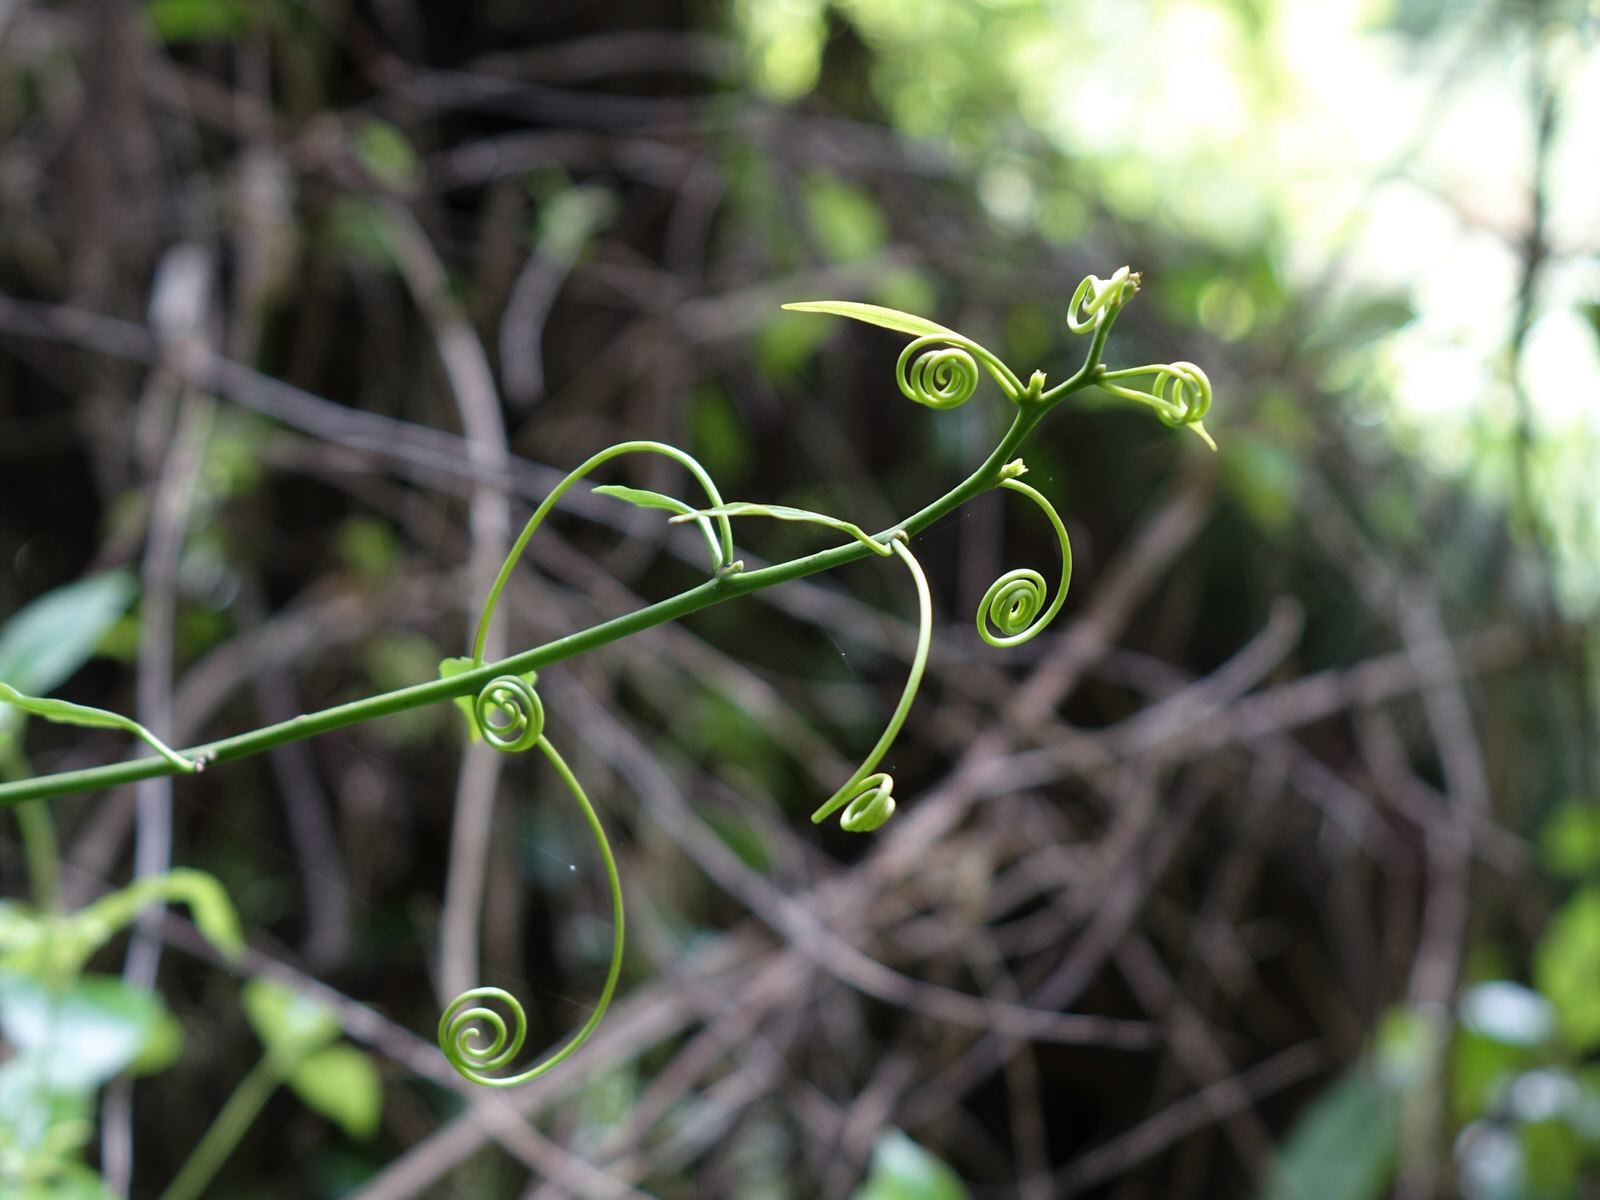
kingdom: Plantae
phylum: Tracheophyta
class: Magnoliopsida
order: Malpighiales
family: Passifloraceae
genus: Passiflora
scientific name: Passiflora tetrandra
